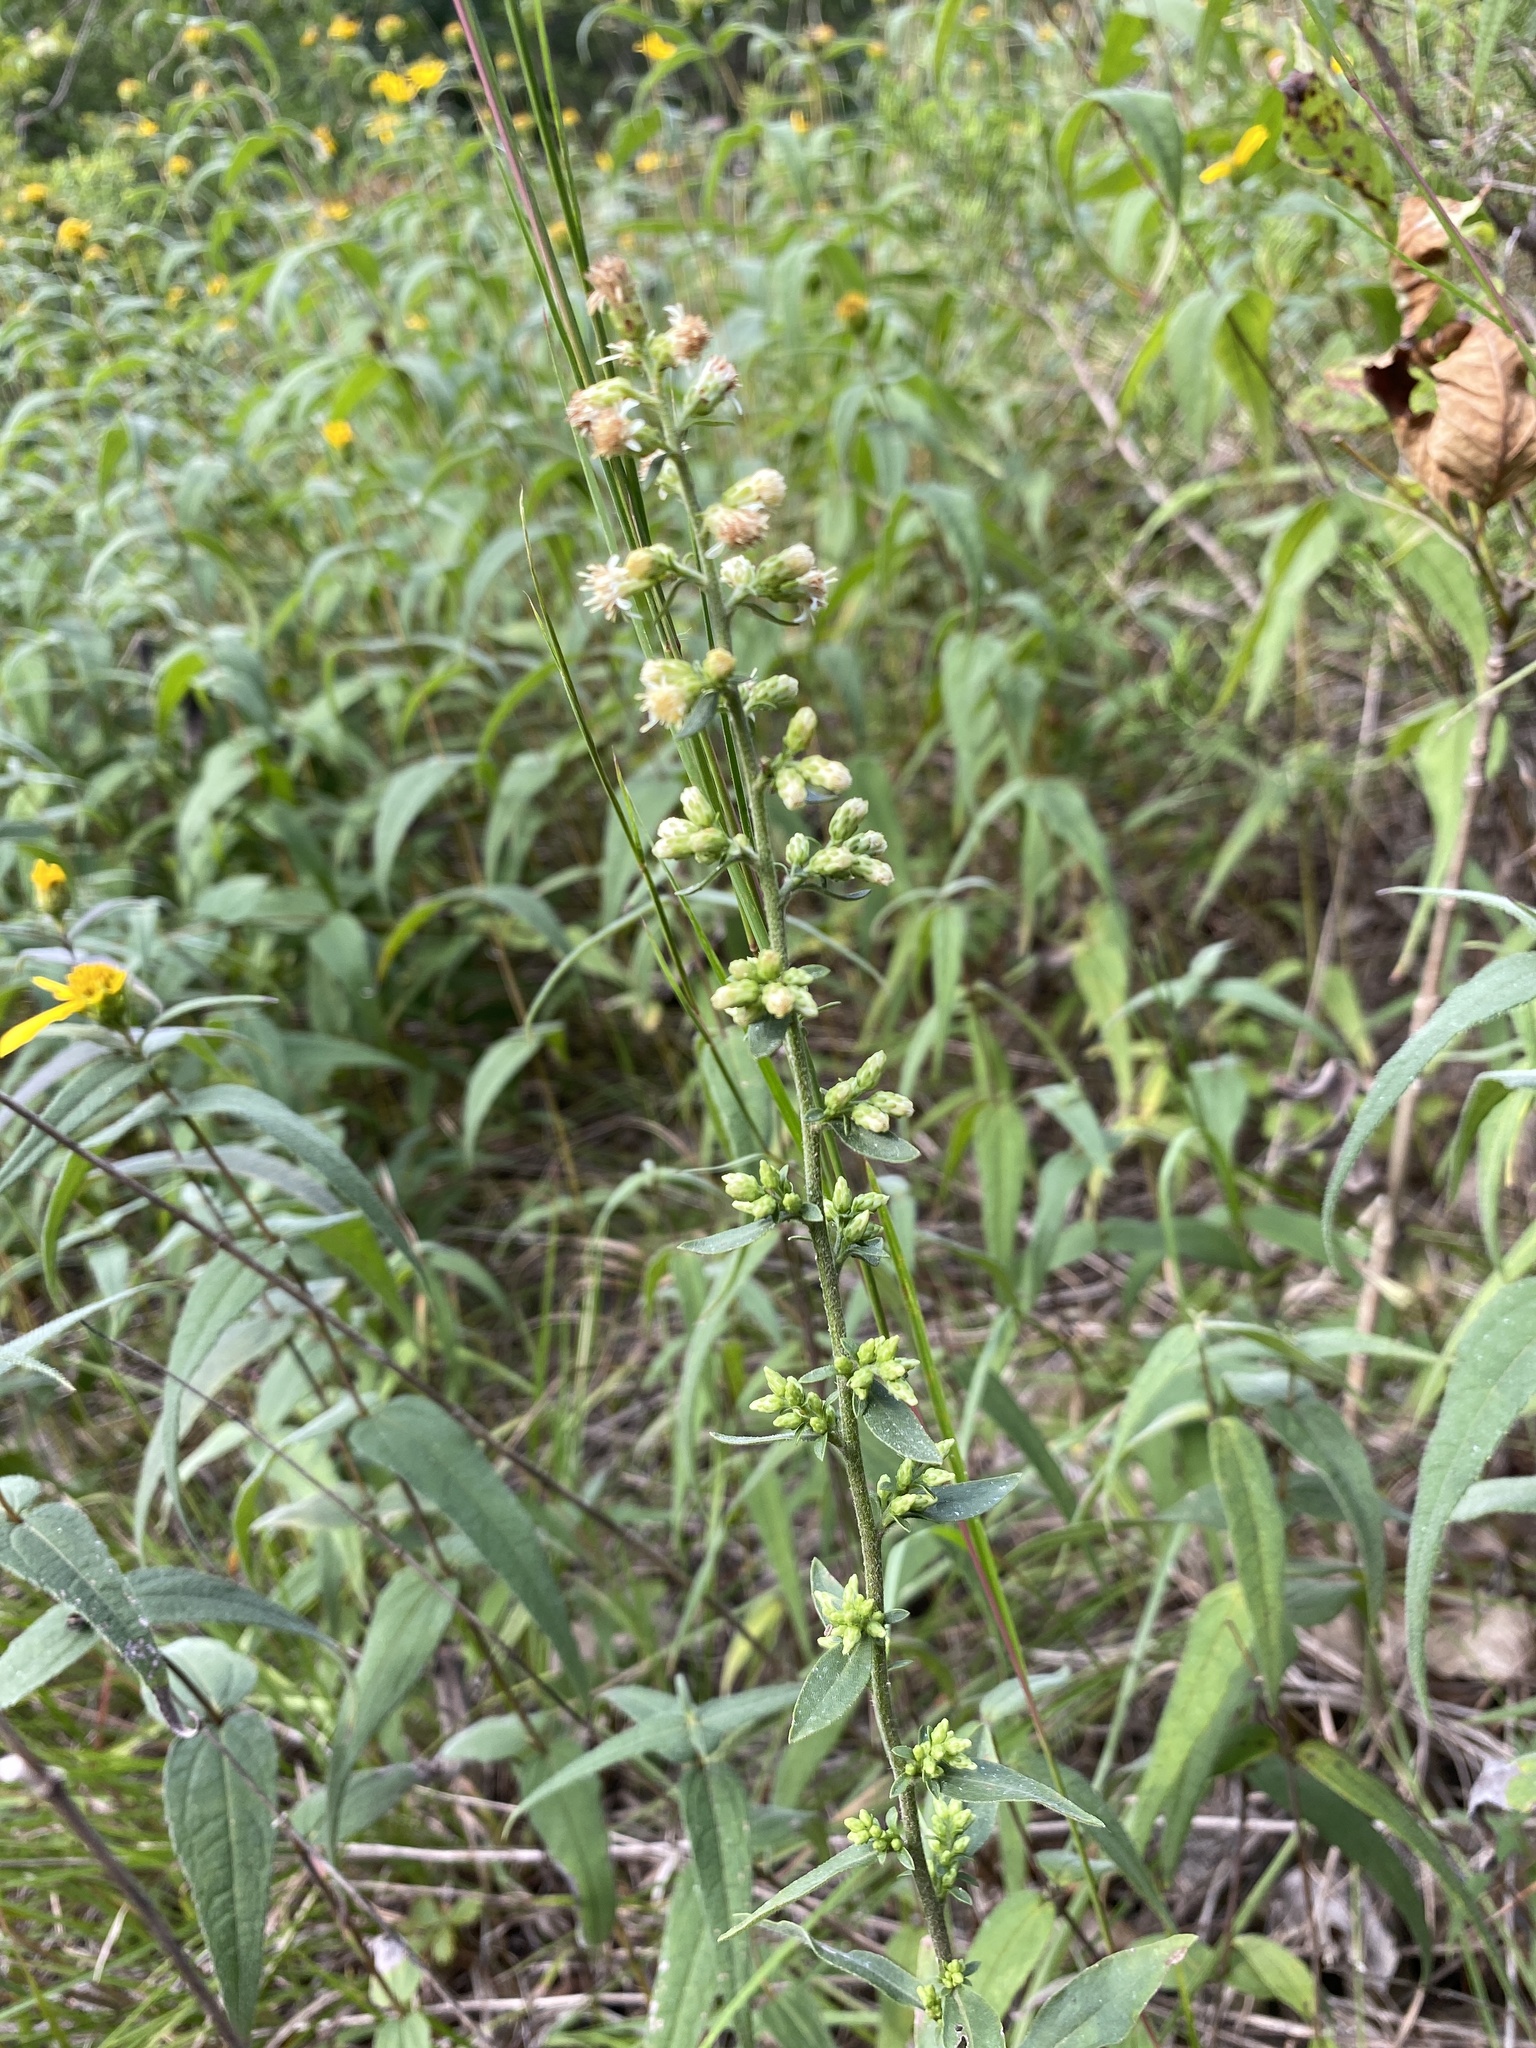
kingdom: Plantae
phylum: Tracheophyta
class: Magnoliopsida
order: Asterales
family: Asteraceae
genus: Solidago
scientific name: Solidago bicolor
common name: Silverrod
